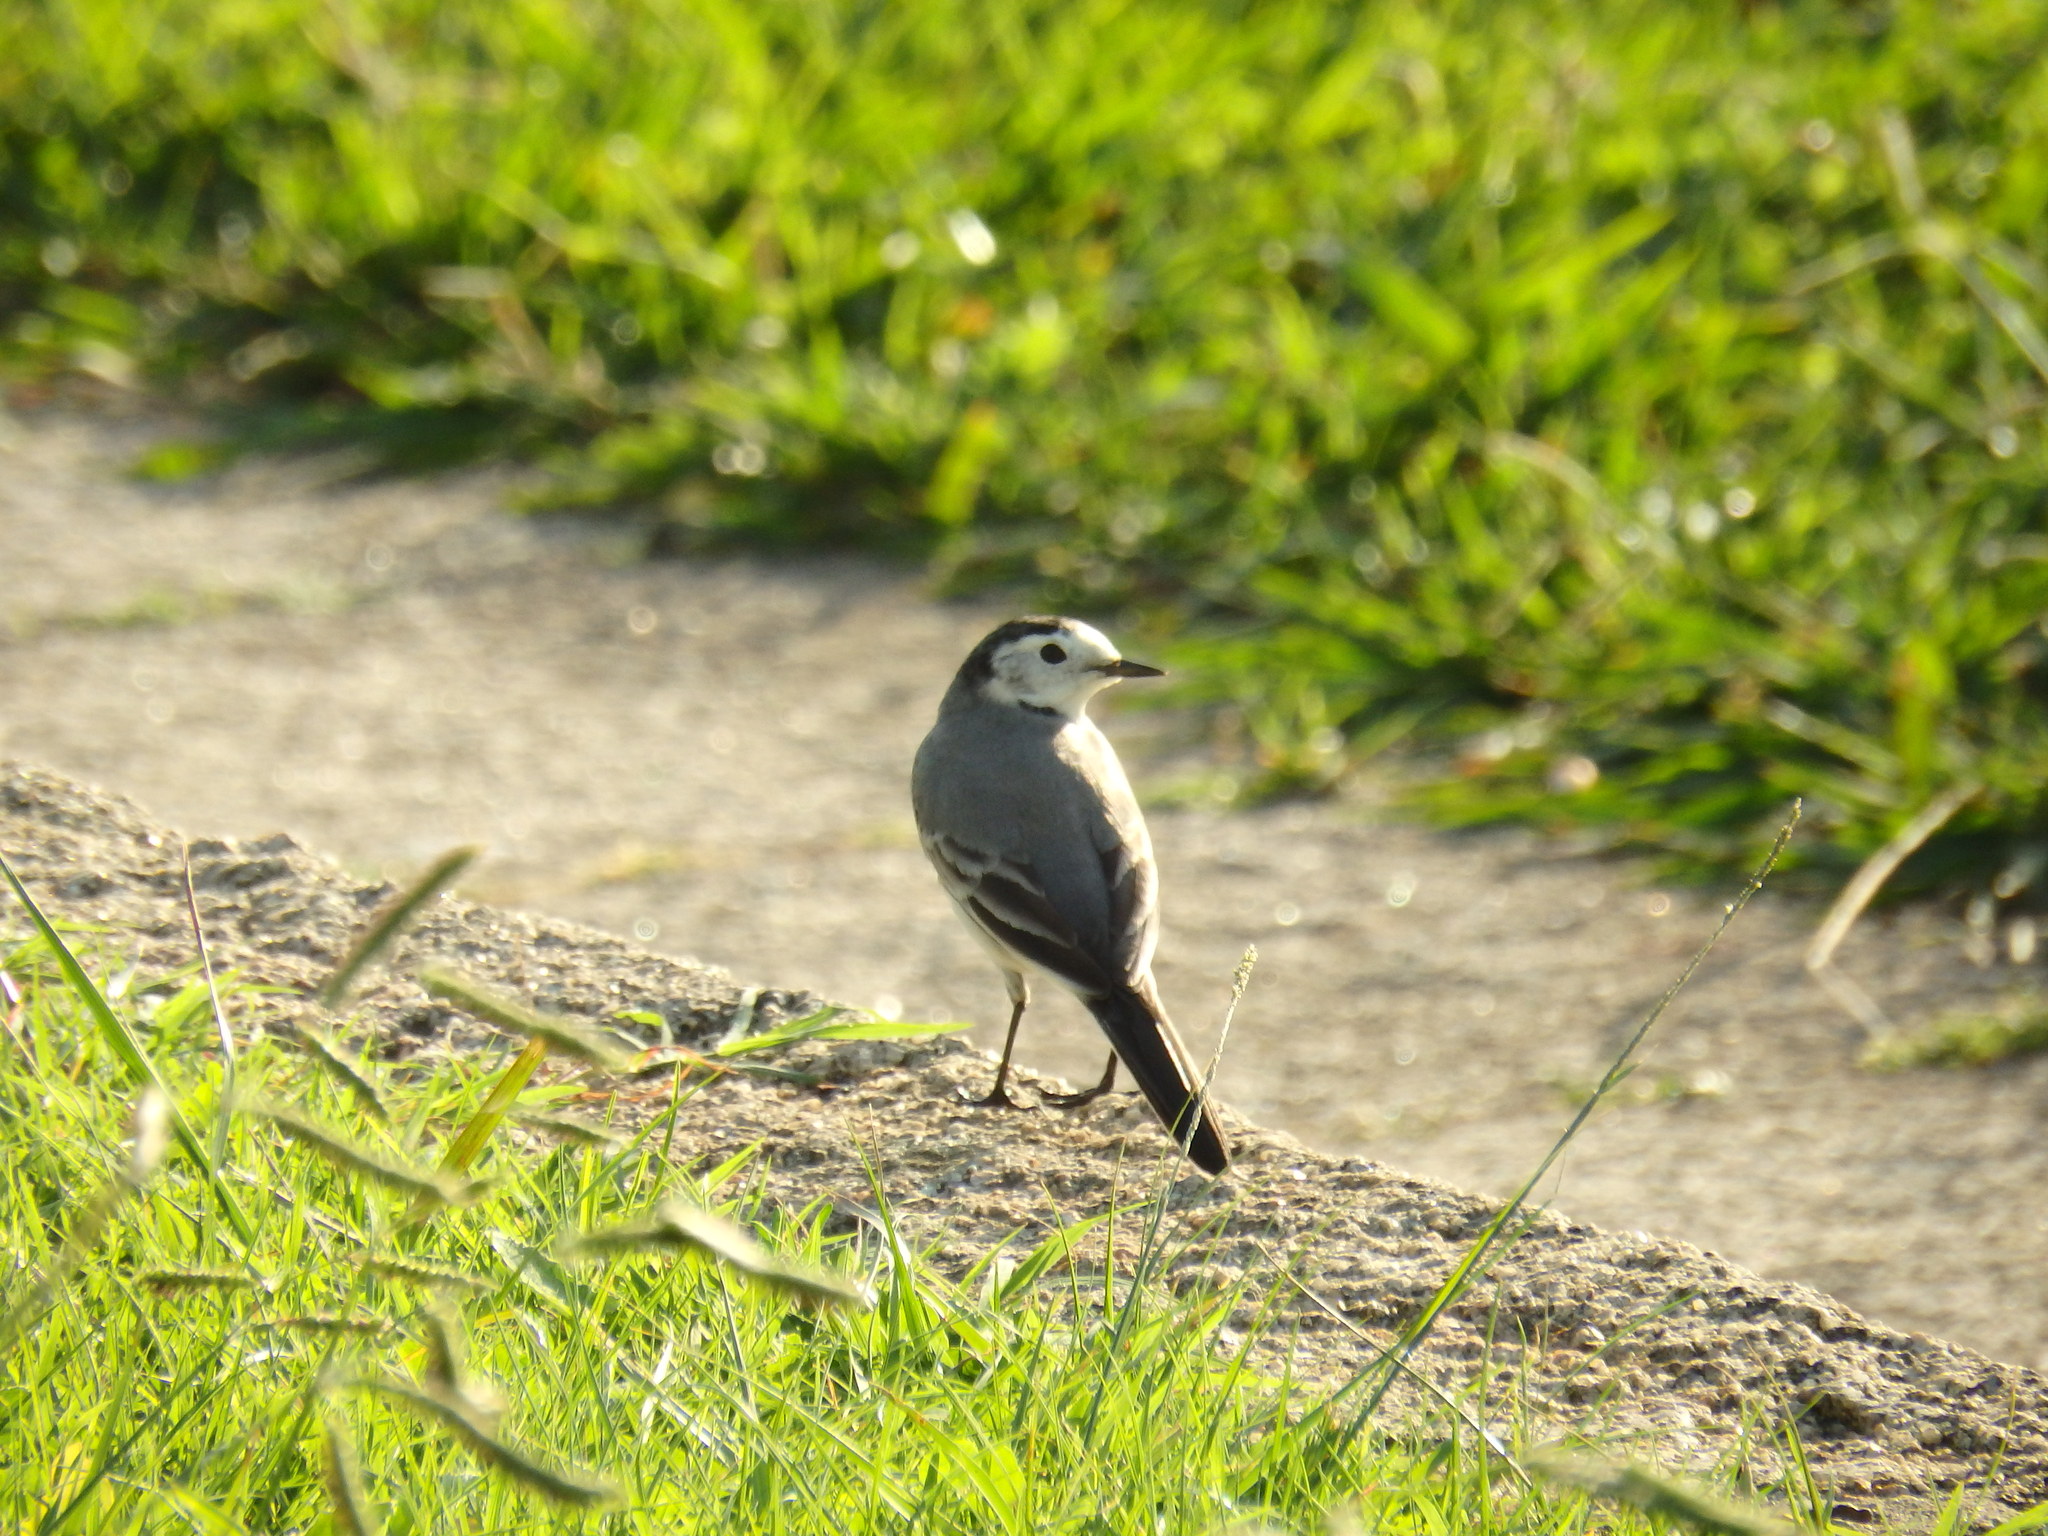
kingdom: Animalia
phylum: Chordata
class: Aves
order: Passeriformes
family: Motacillidae
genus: Motacilla
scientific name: Motacilla alba
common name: White wagtail
